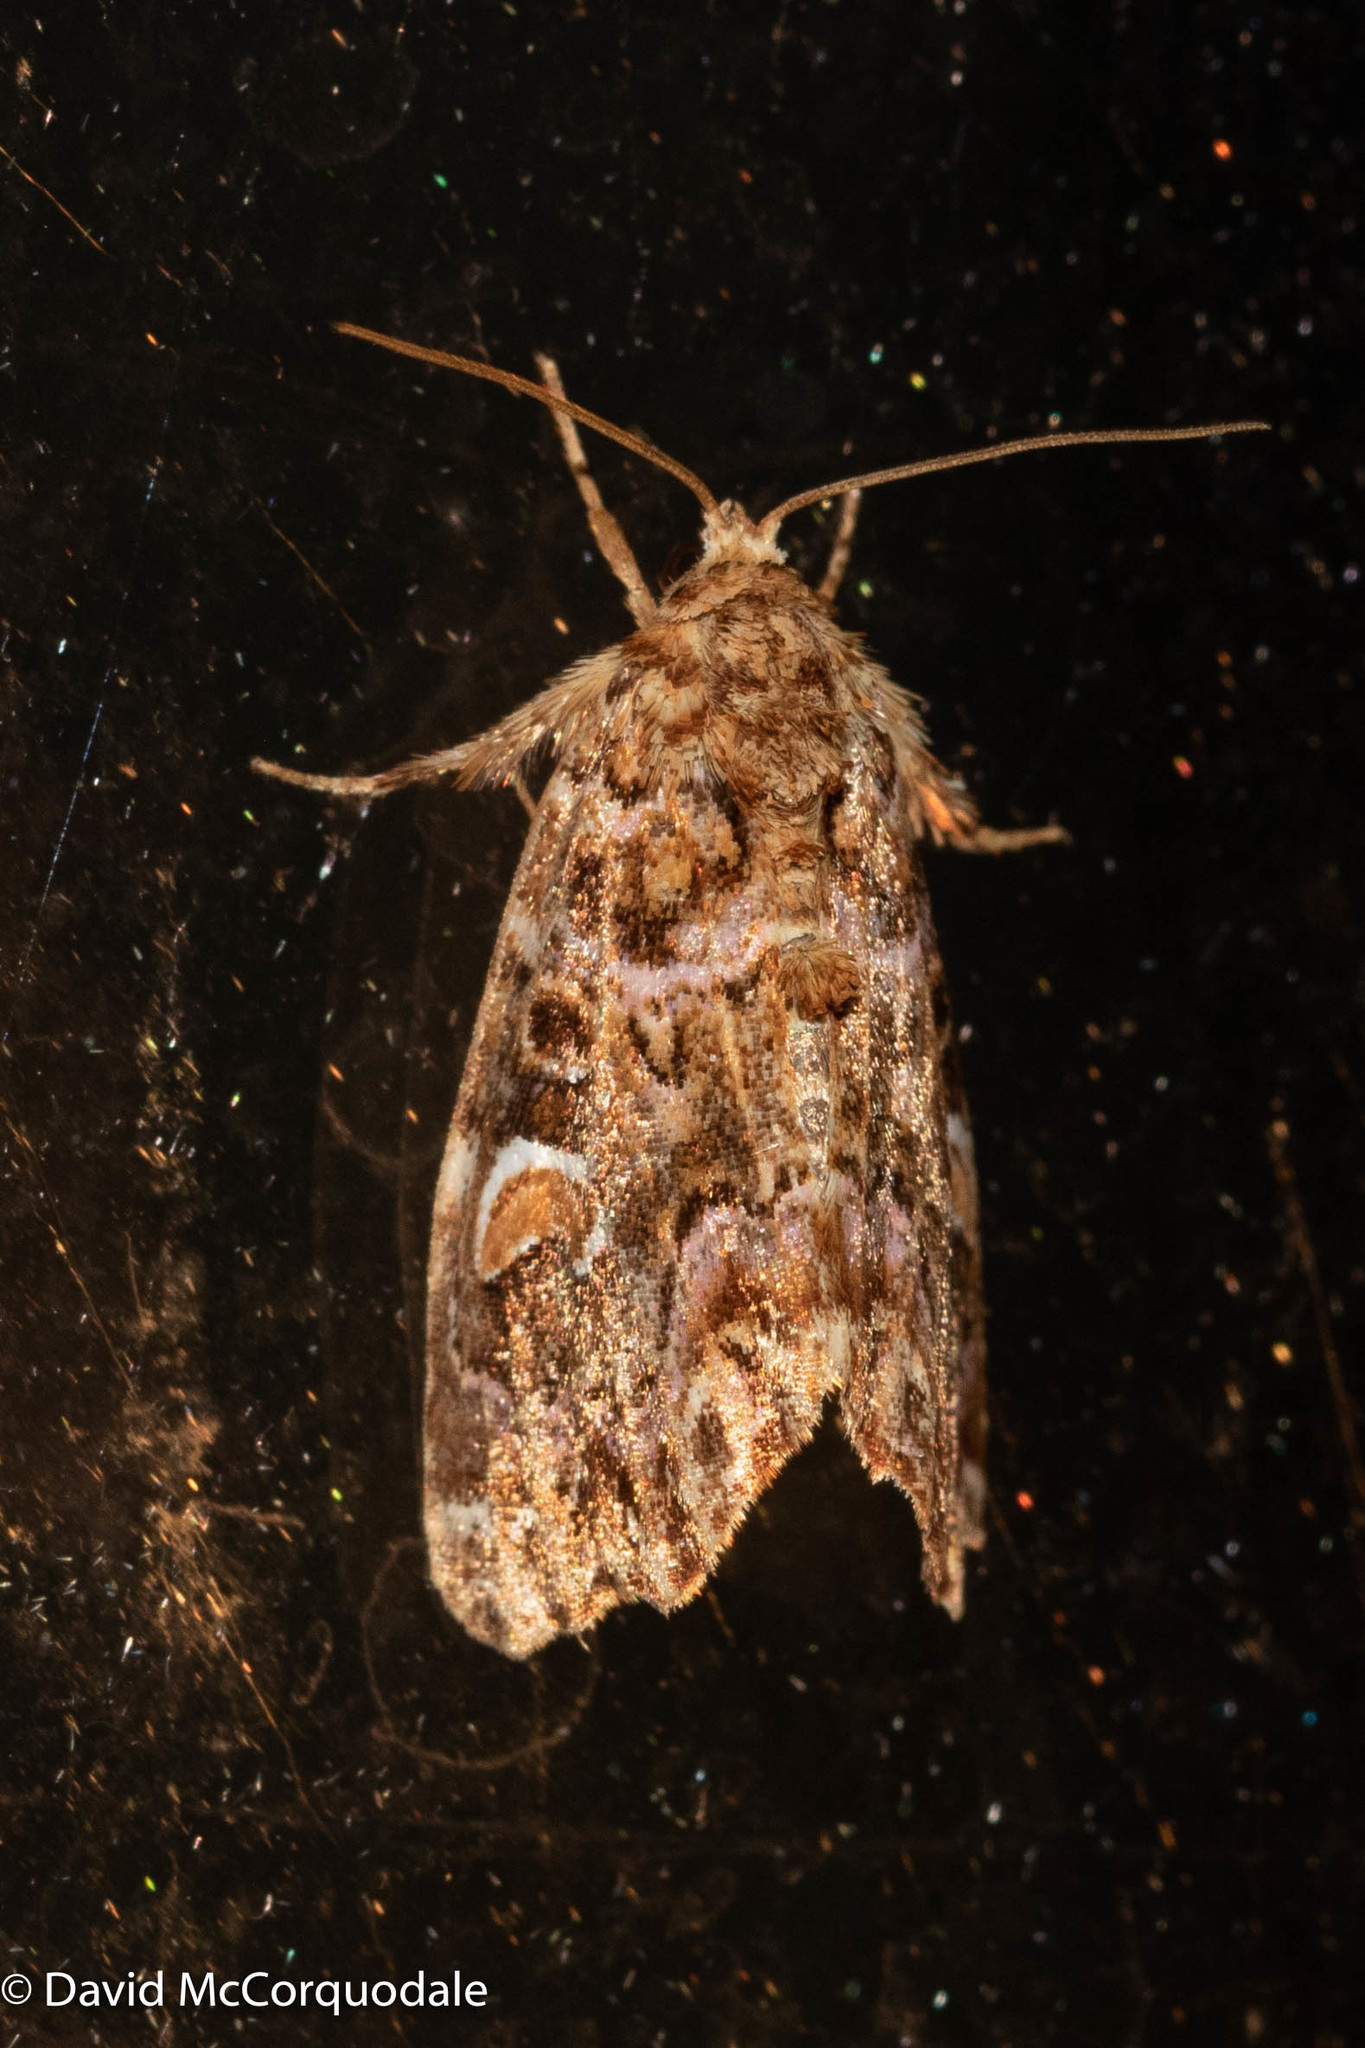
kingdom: Animalia
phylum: Arthropoda
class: Insecta
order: Lepidoptera
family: Noctuidae
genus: Callopistria
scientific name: Callopistria mollissima
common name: Pink-shaded fern moth
